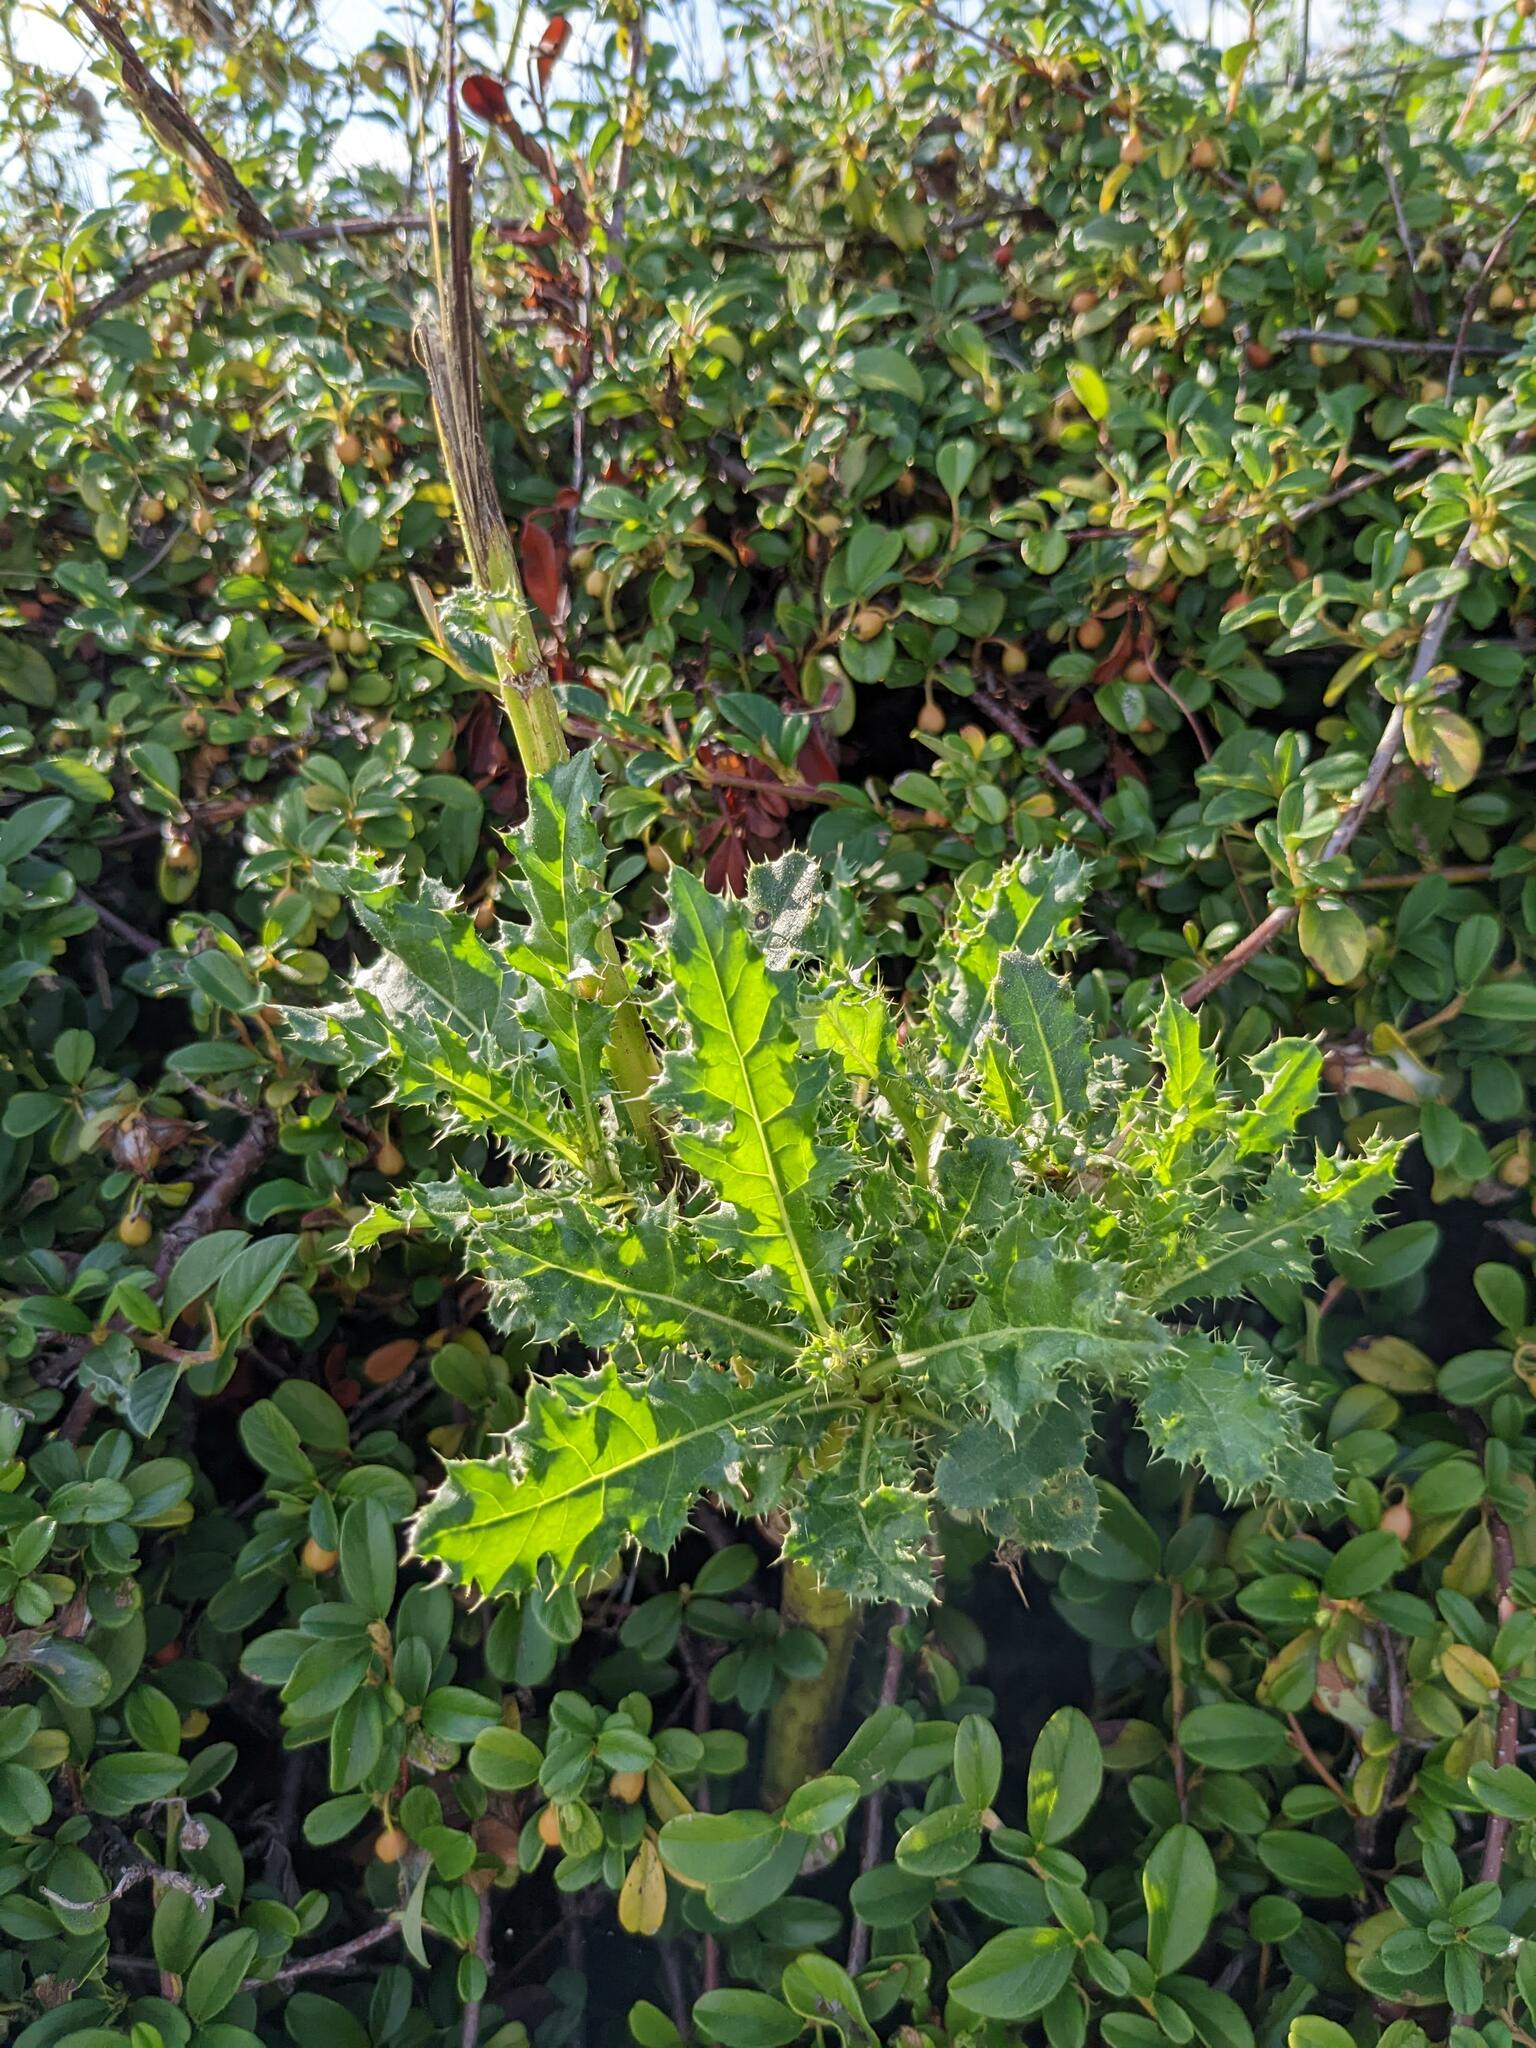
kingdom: Plantae
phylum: Tracheophyta
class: Magnoliopsida
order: Asterales
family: Asteraceae
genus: Cirsium
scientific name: Cirsium arvense
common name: Creeping thistle
